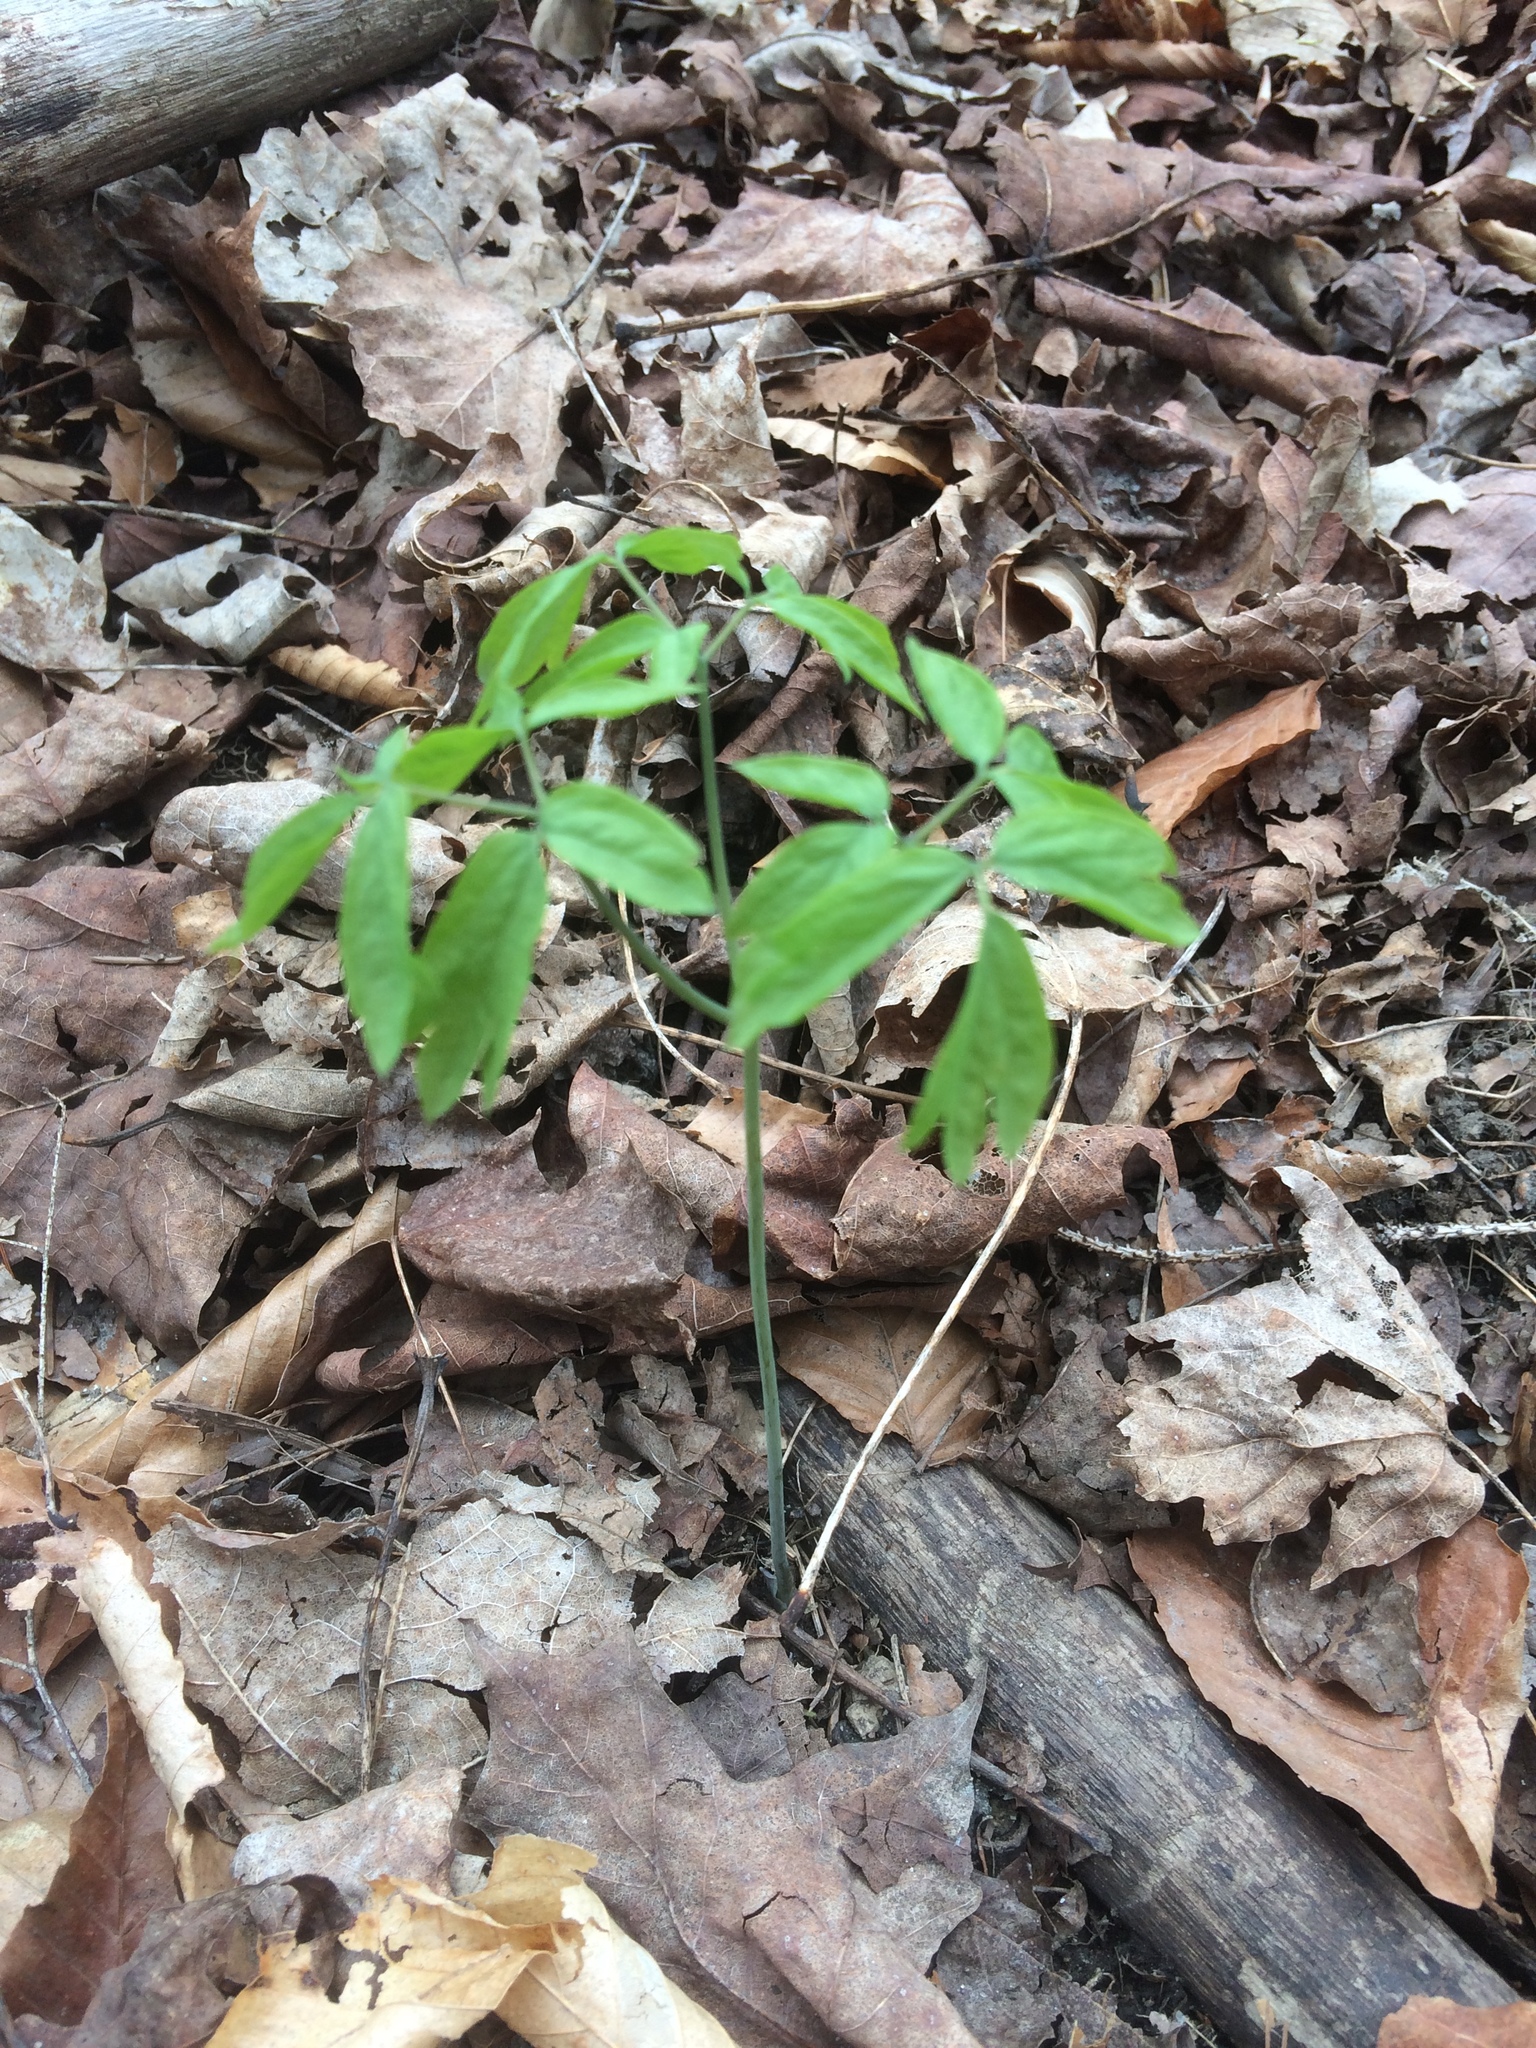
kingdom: Plantae
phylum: Tracheophyta
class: Magnoliopsida
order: Apiales
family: Araliaceae
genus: Aralia
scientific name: Aralia nudicaulis
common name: Wild sarsaparilla
